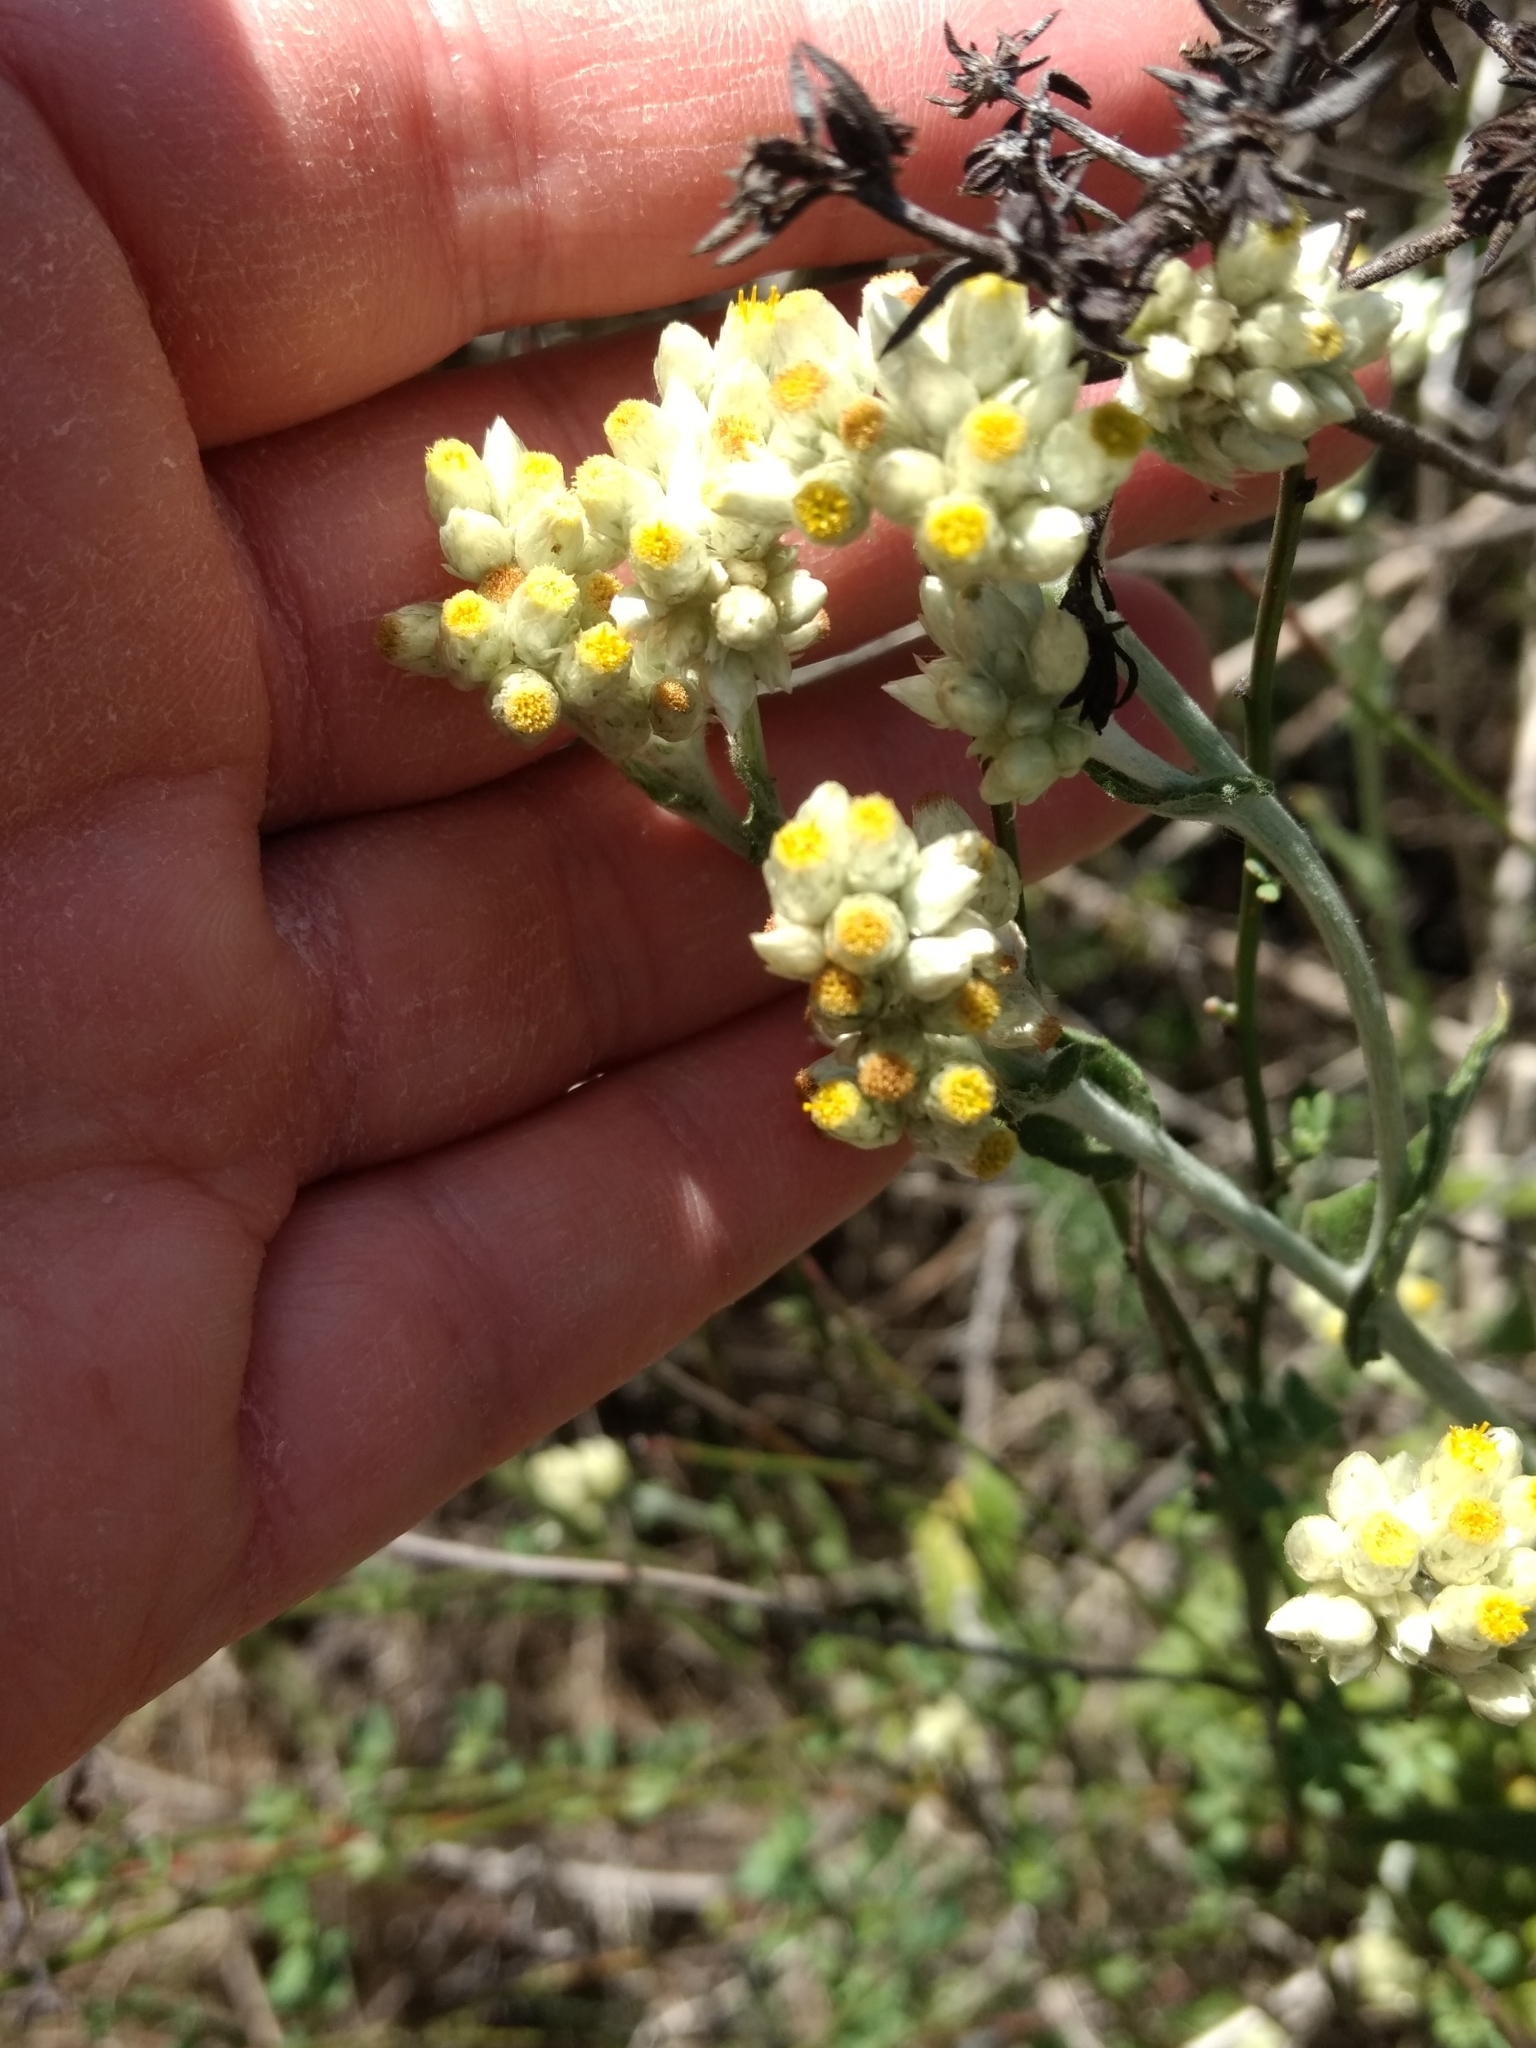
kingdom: Plantae
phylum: Tracheophyta
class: Magnoliopsida
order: Asterales
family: Asteraceae
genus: Pseudognaphalium
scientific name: Pseudognaphalium biolettii
